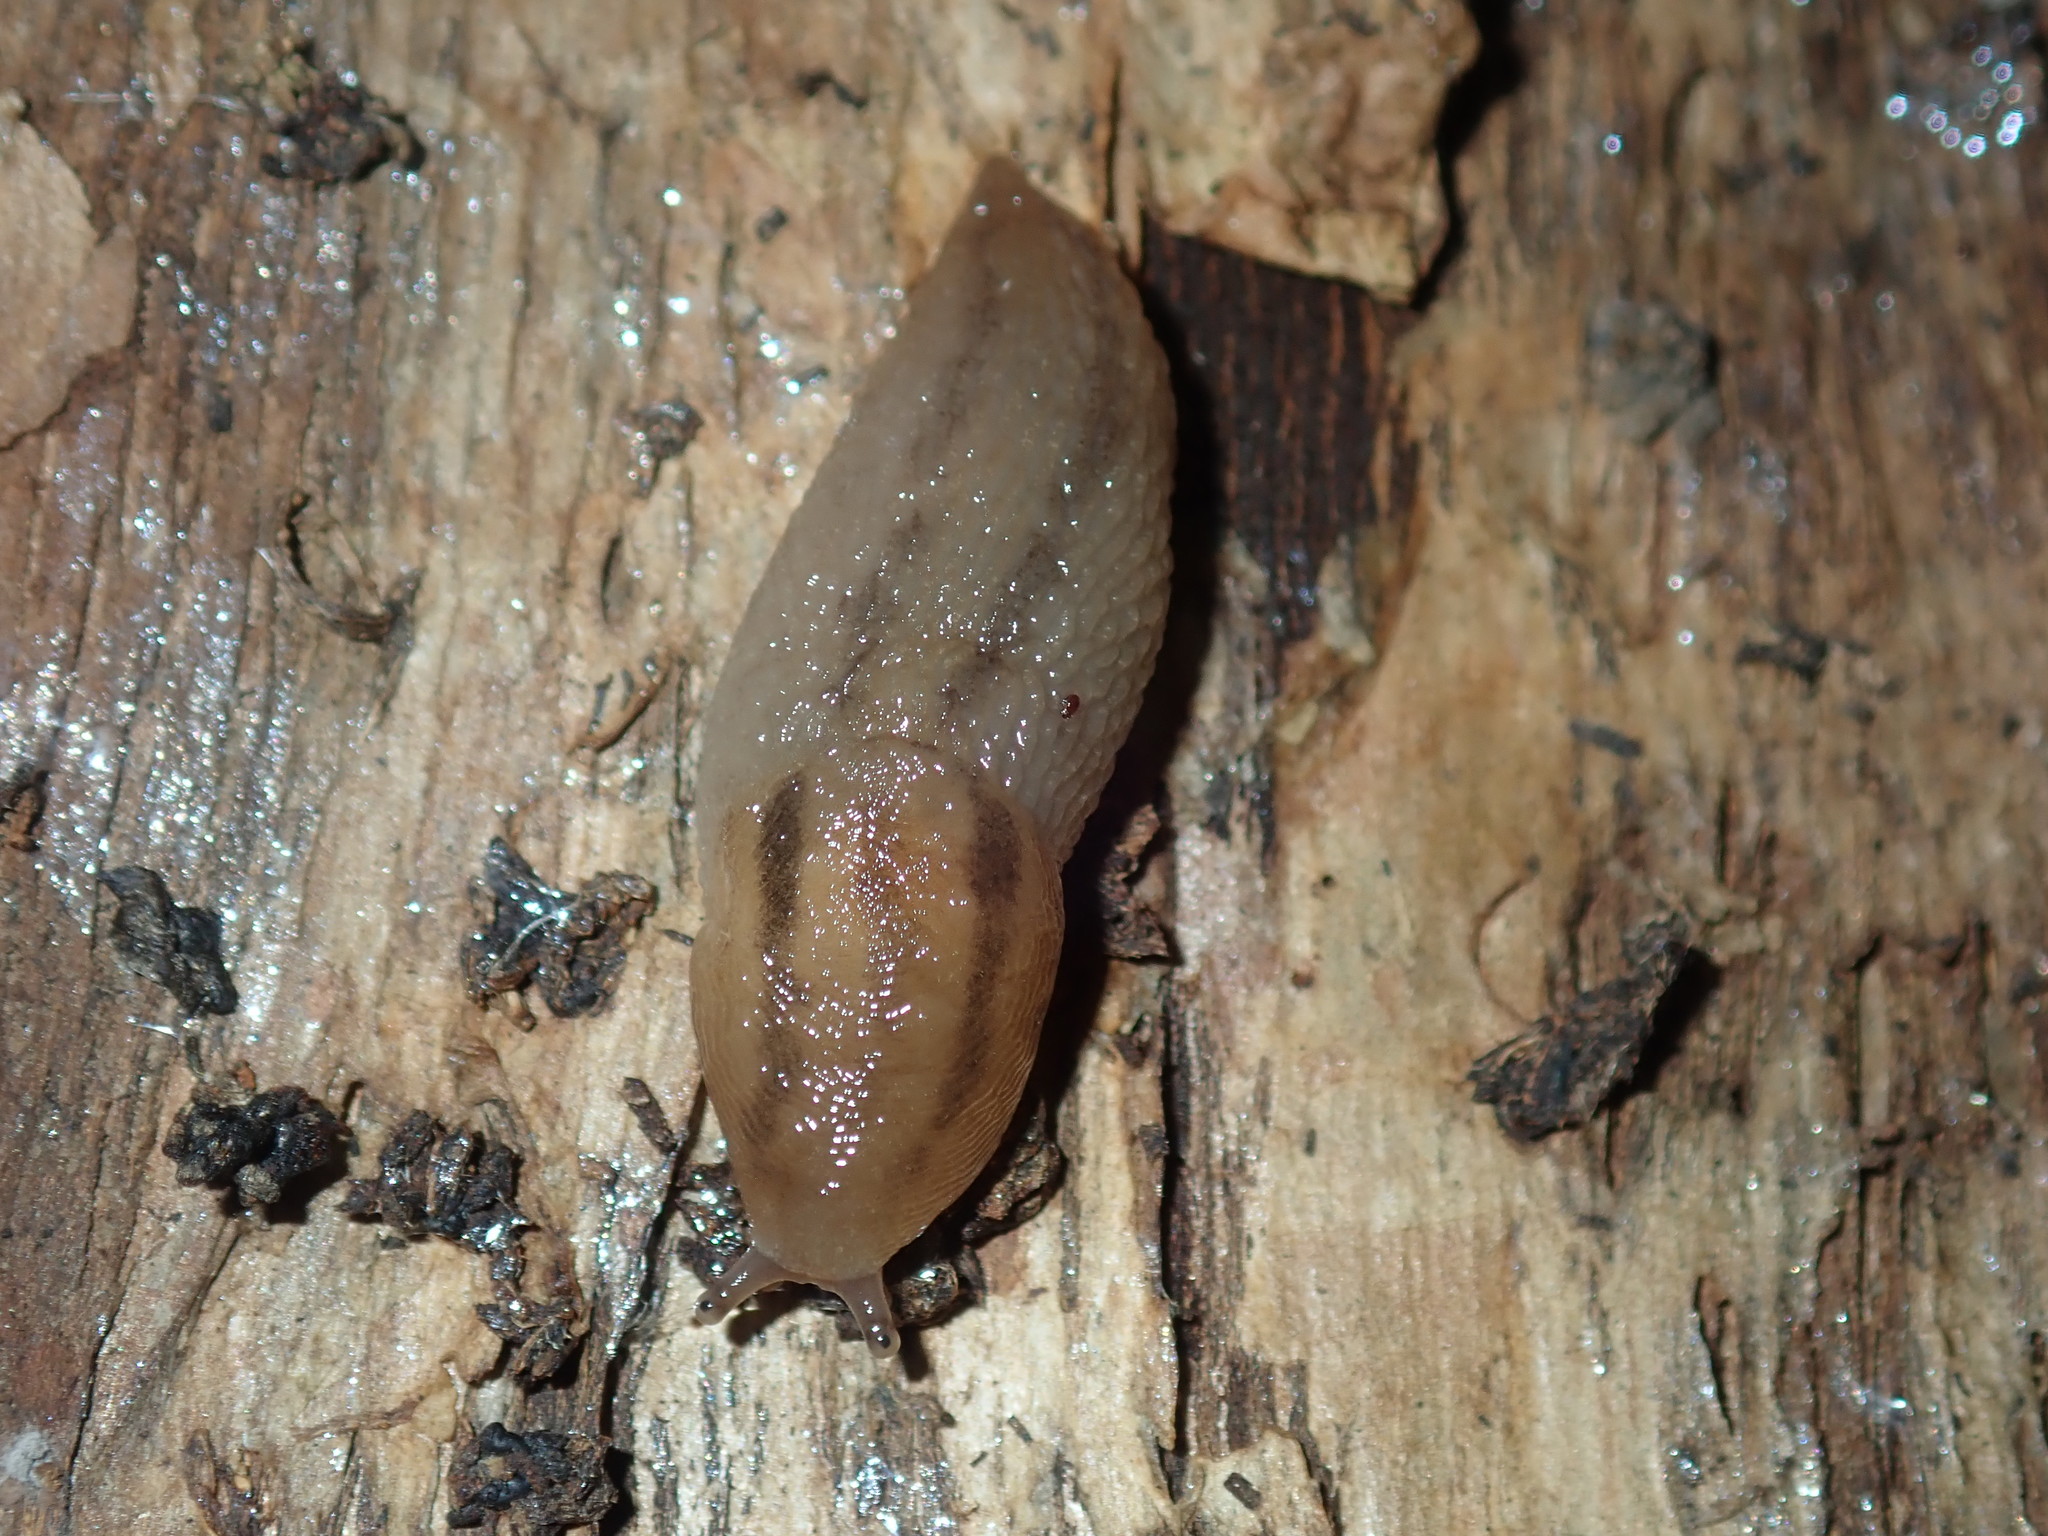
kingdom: Animalia
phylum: Mollusca
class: Gastropoda
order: Stylommatophora
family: Limacidae
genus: Ambigolimax
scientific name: Ambigolimax
